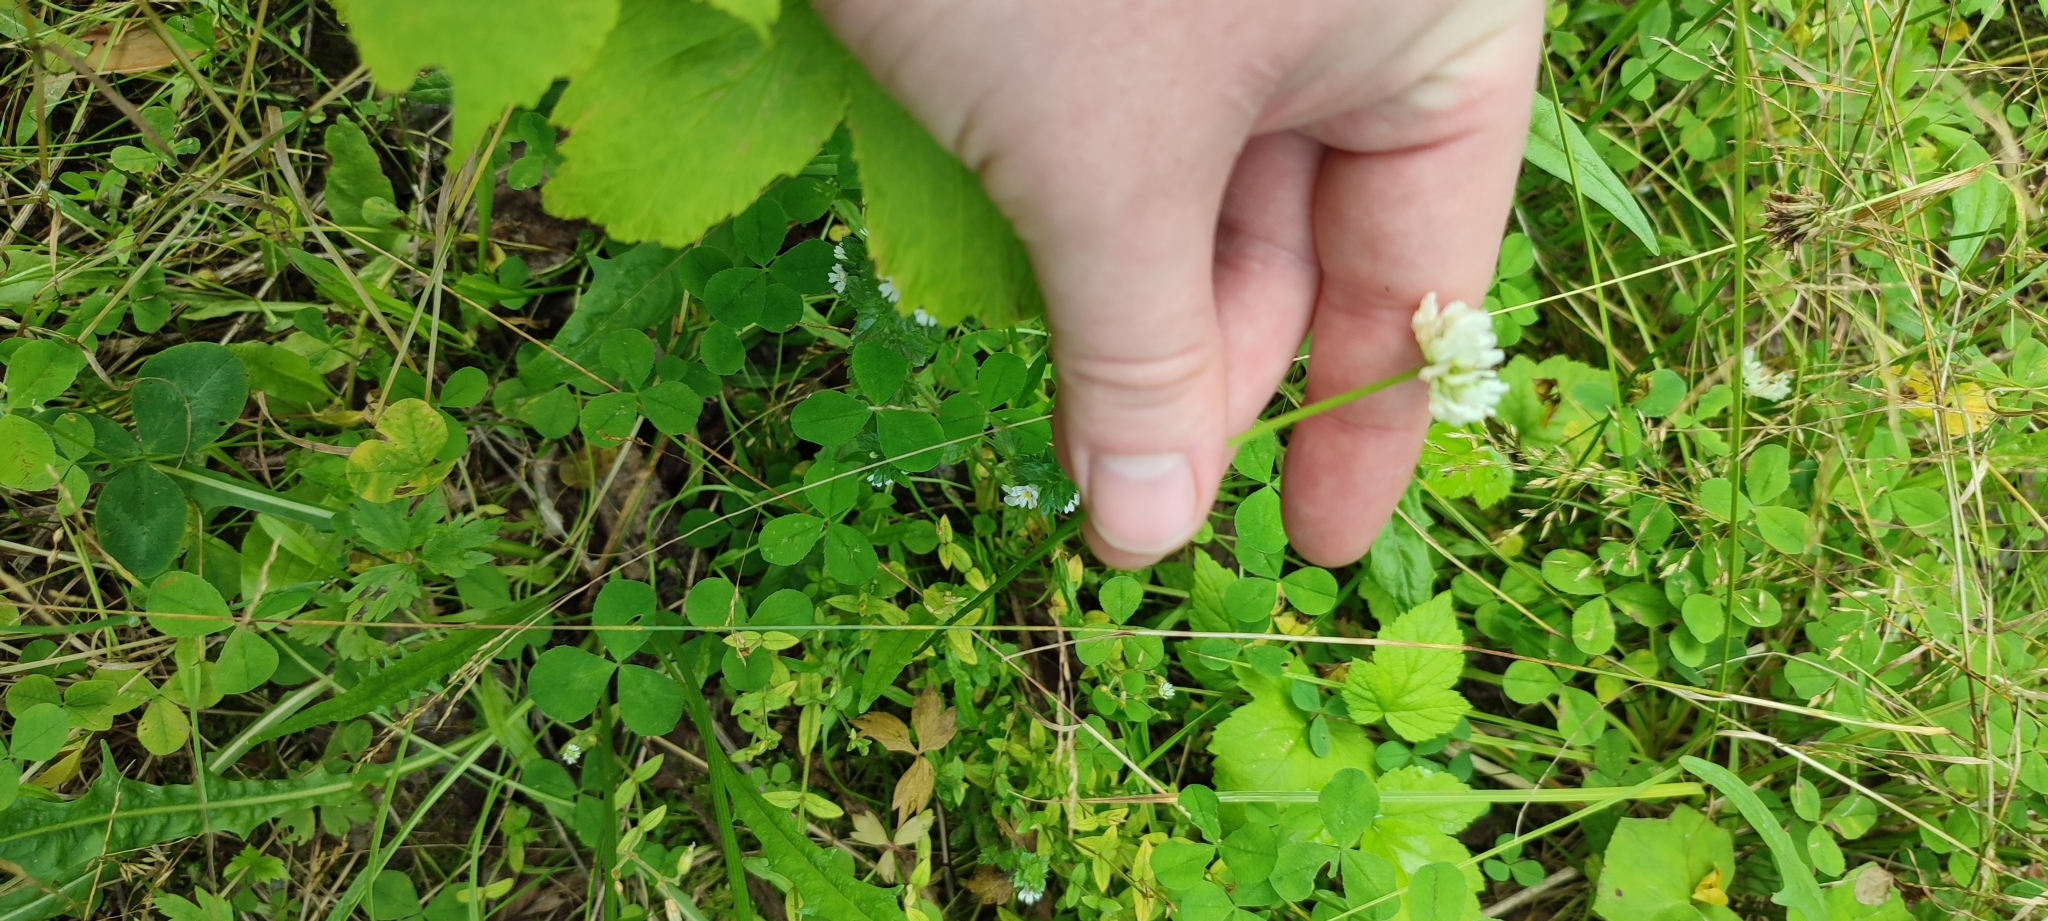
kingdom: Plantae
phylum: Tracheophyta
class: Magnoliopsida
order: Fabales
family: Fabaceae
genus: Trifolium
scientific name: Trifolium repens
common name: White clover
